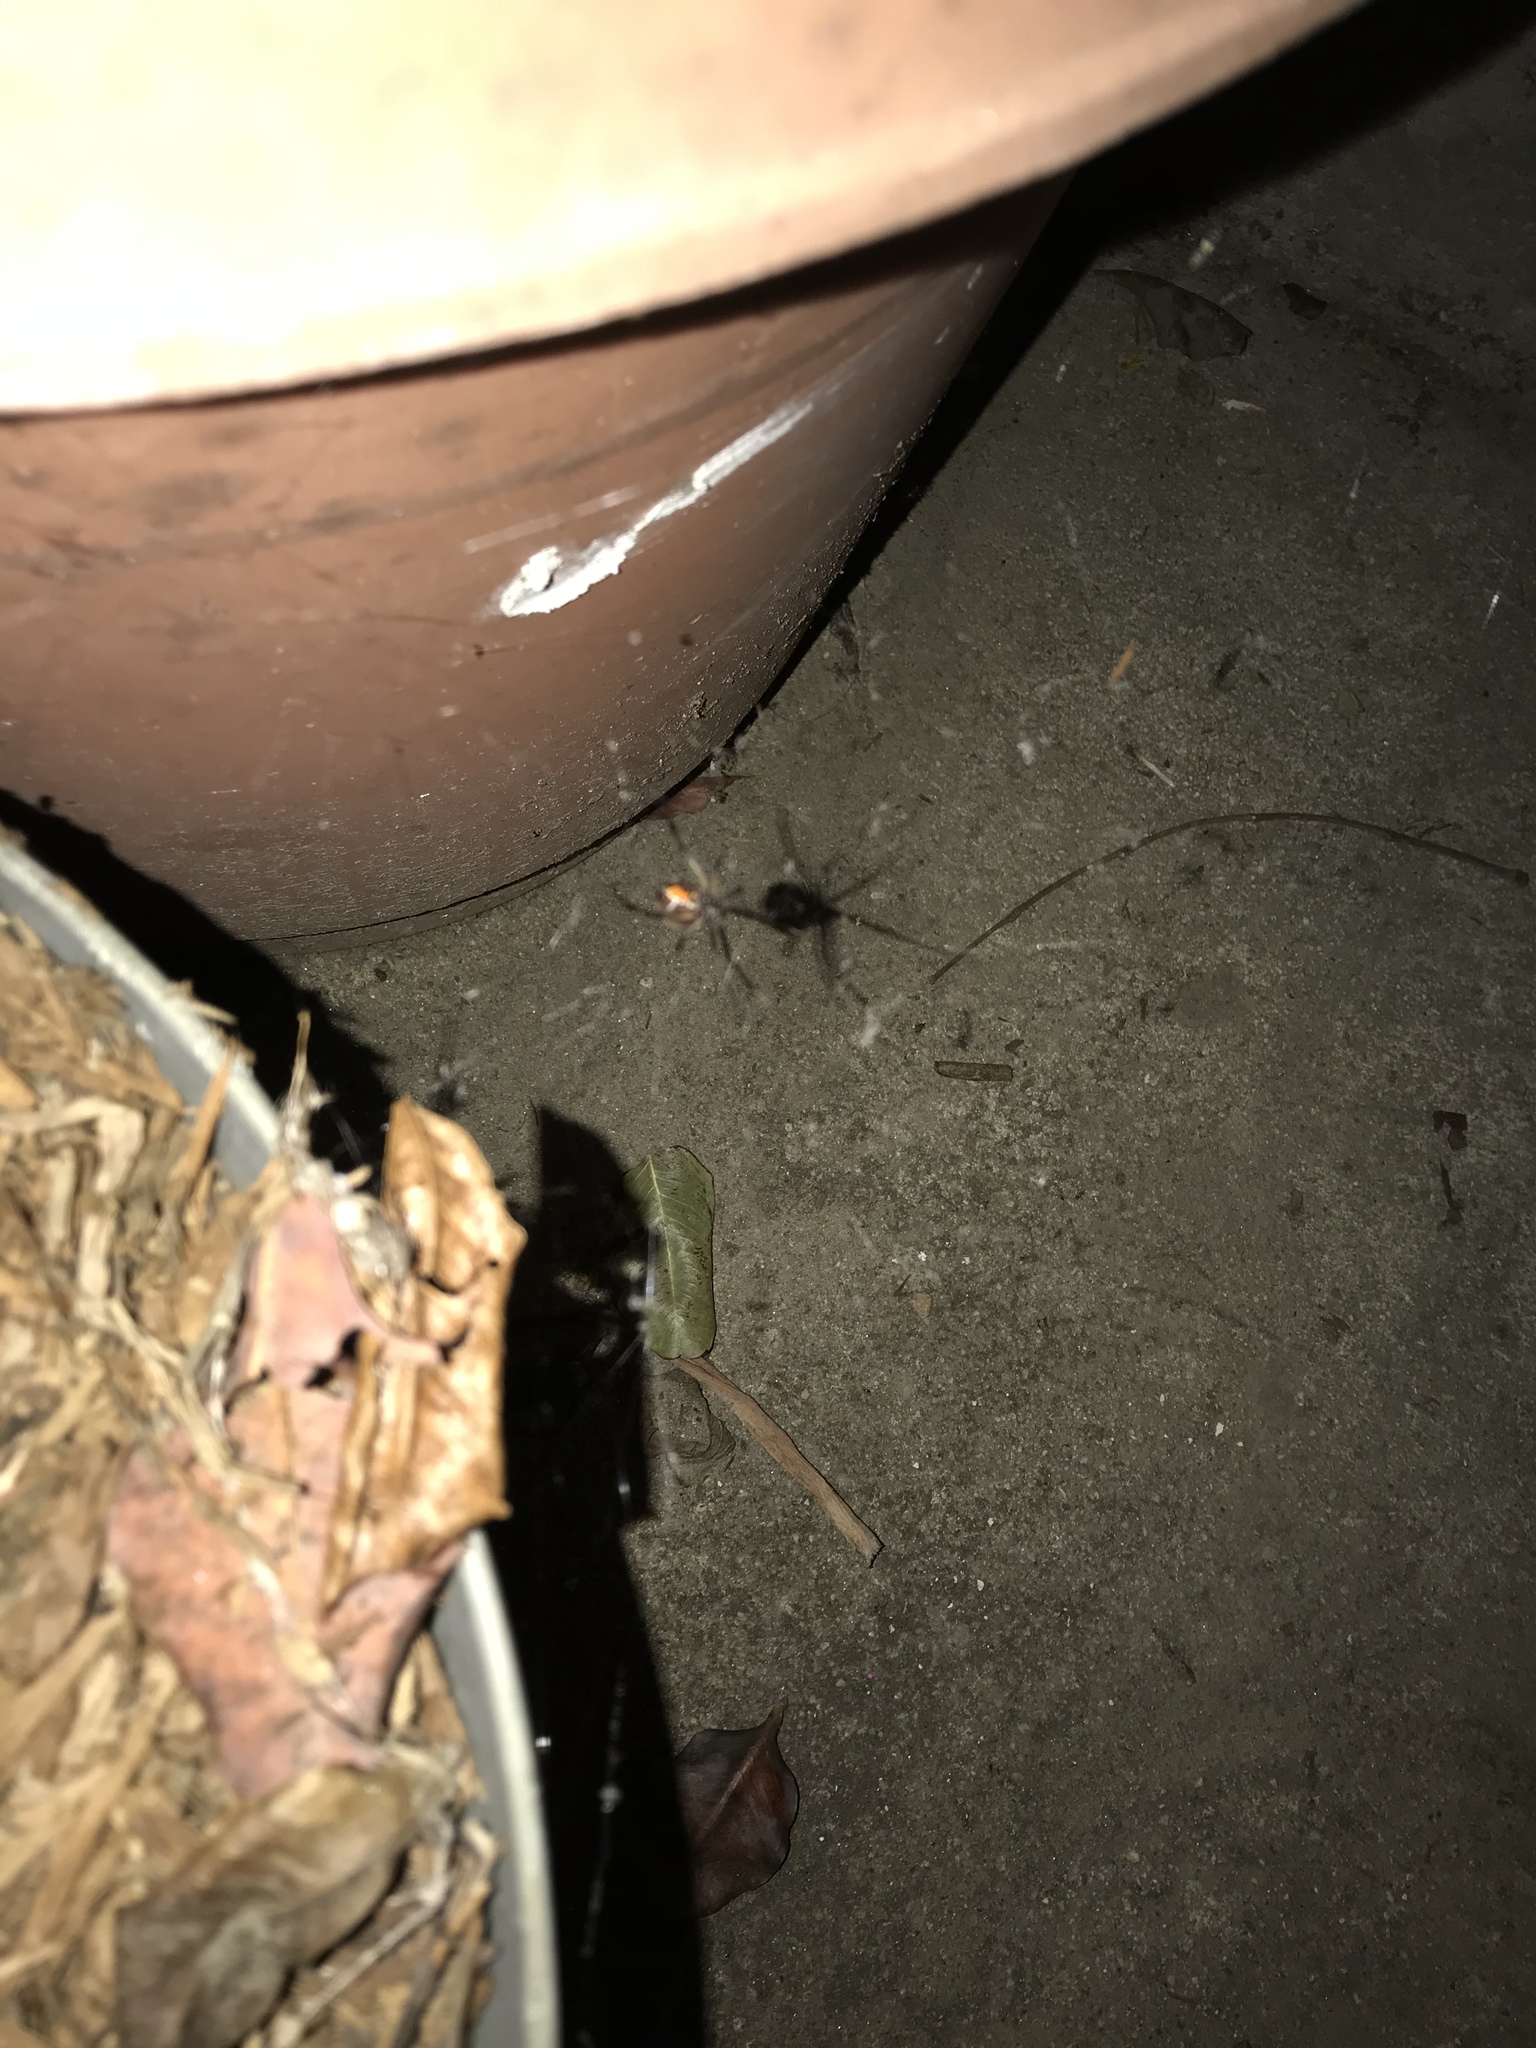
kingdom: Animalia
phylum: Arthropoda
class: Arachnida
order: Araneae
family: Theridiidae
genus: Latrodectus
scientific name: Latrodectus geometricus
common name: Brown widow spider
